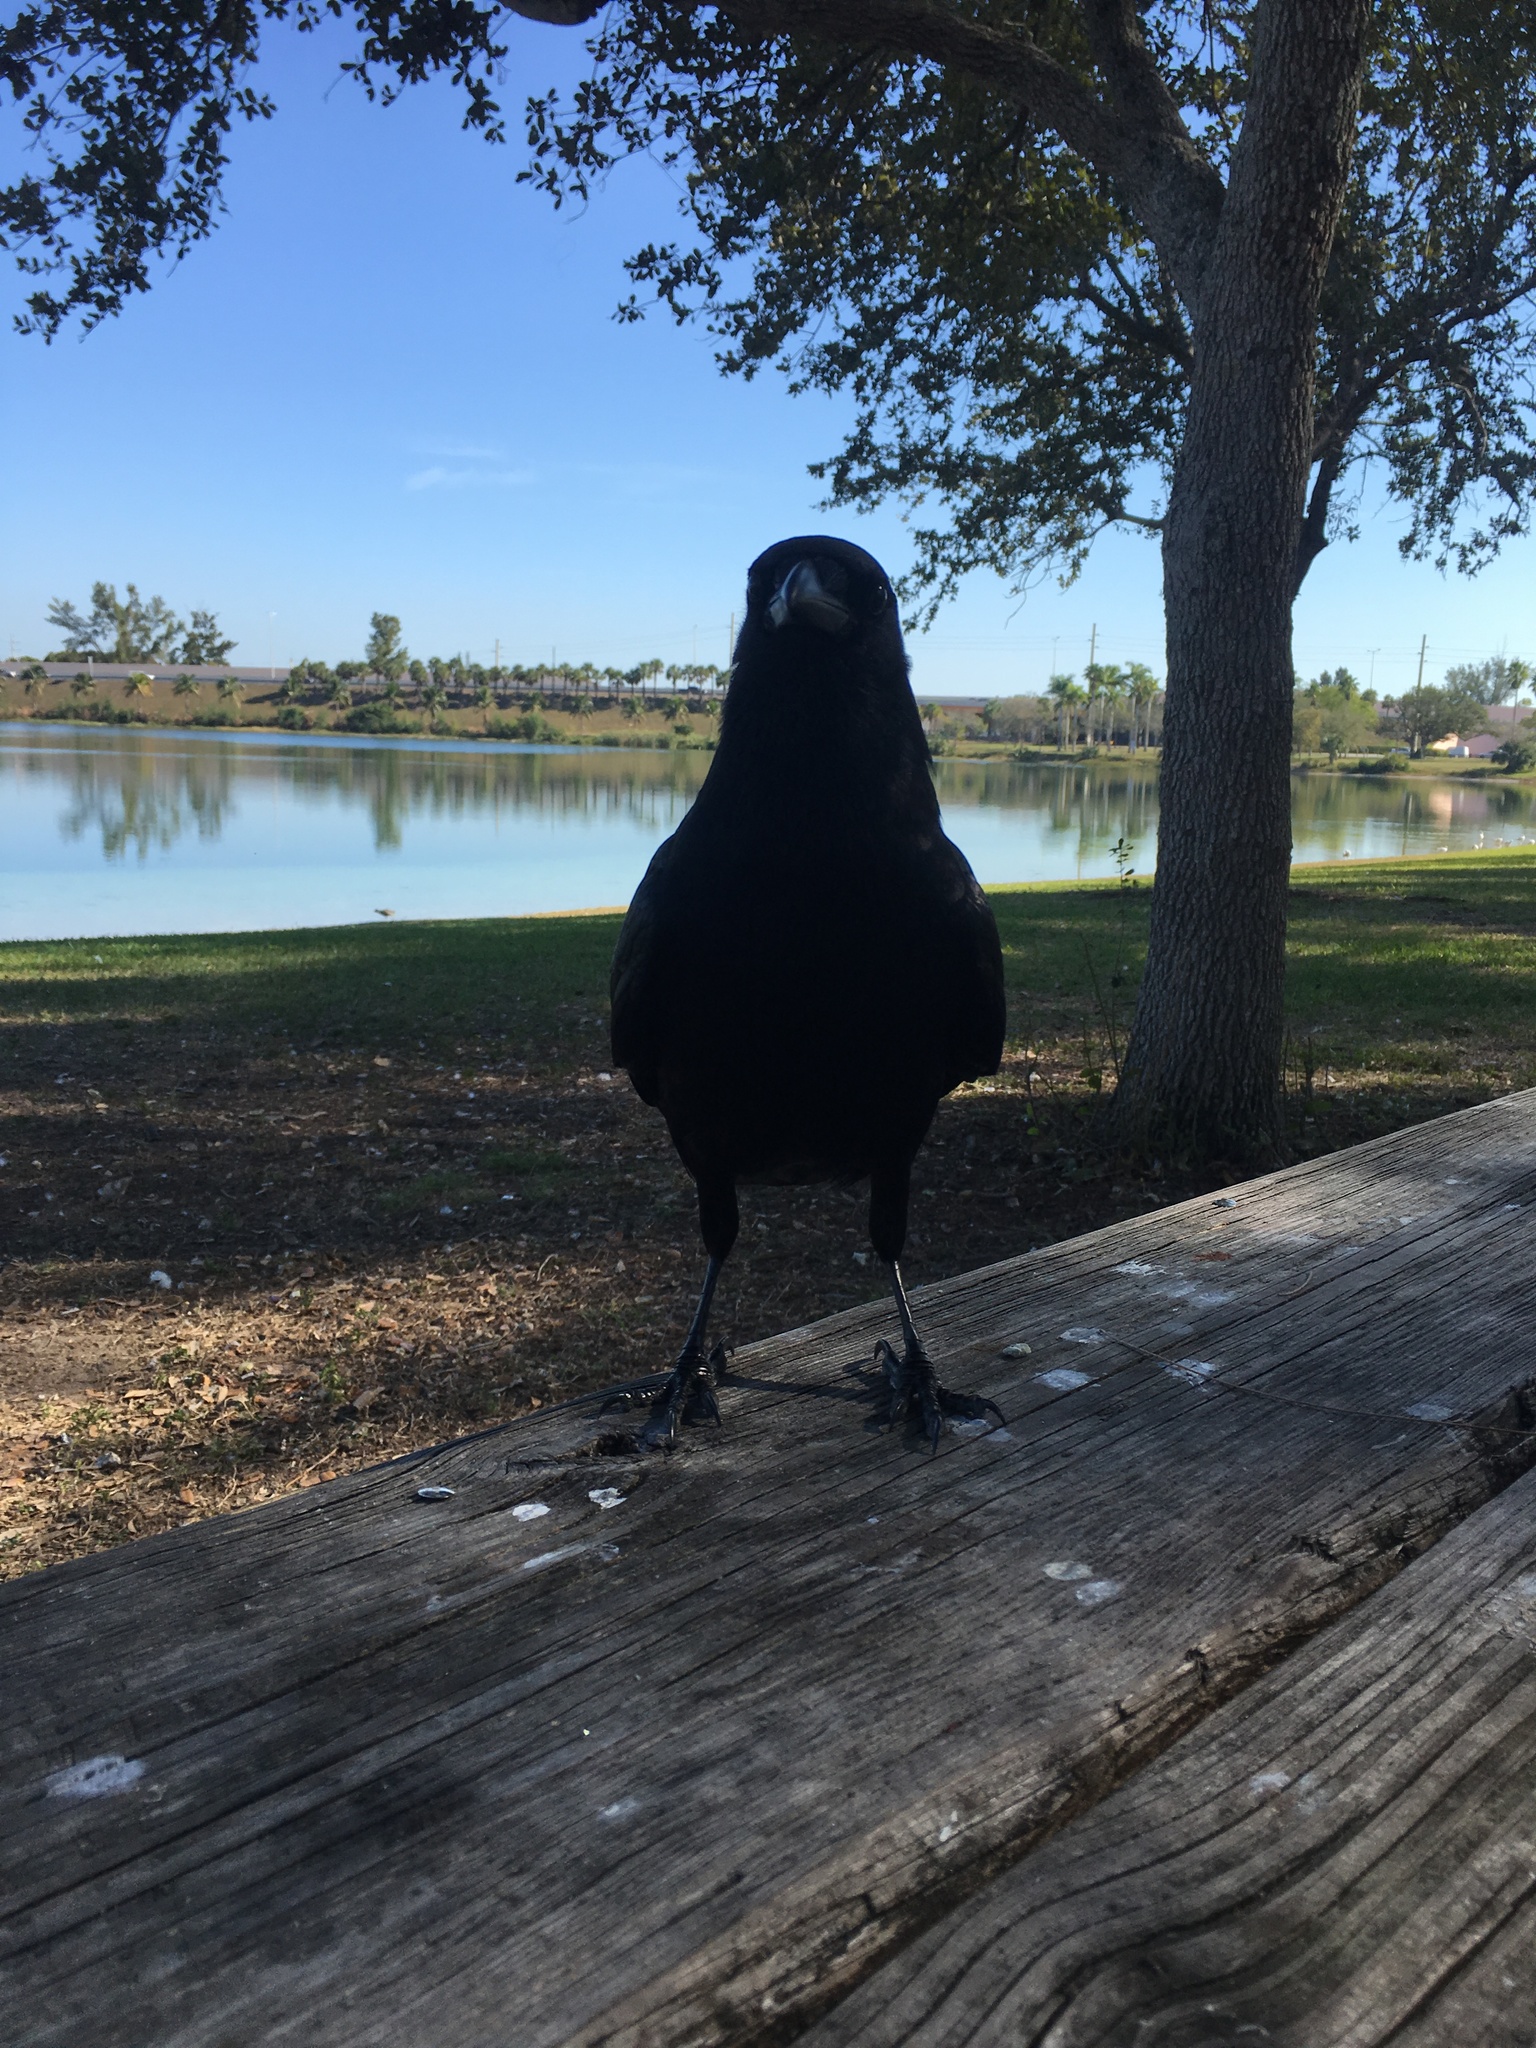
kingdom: Animalia
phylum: Chordata
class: Aves
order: Passeriformes
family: Corvidae
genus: Corvus
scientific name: Corvus ossifragus
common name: Fish crow
